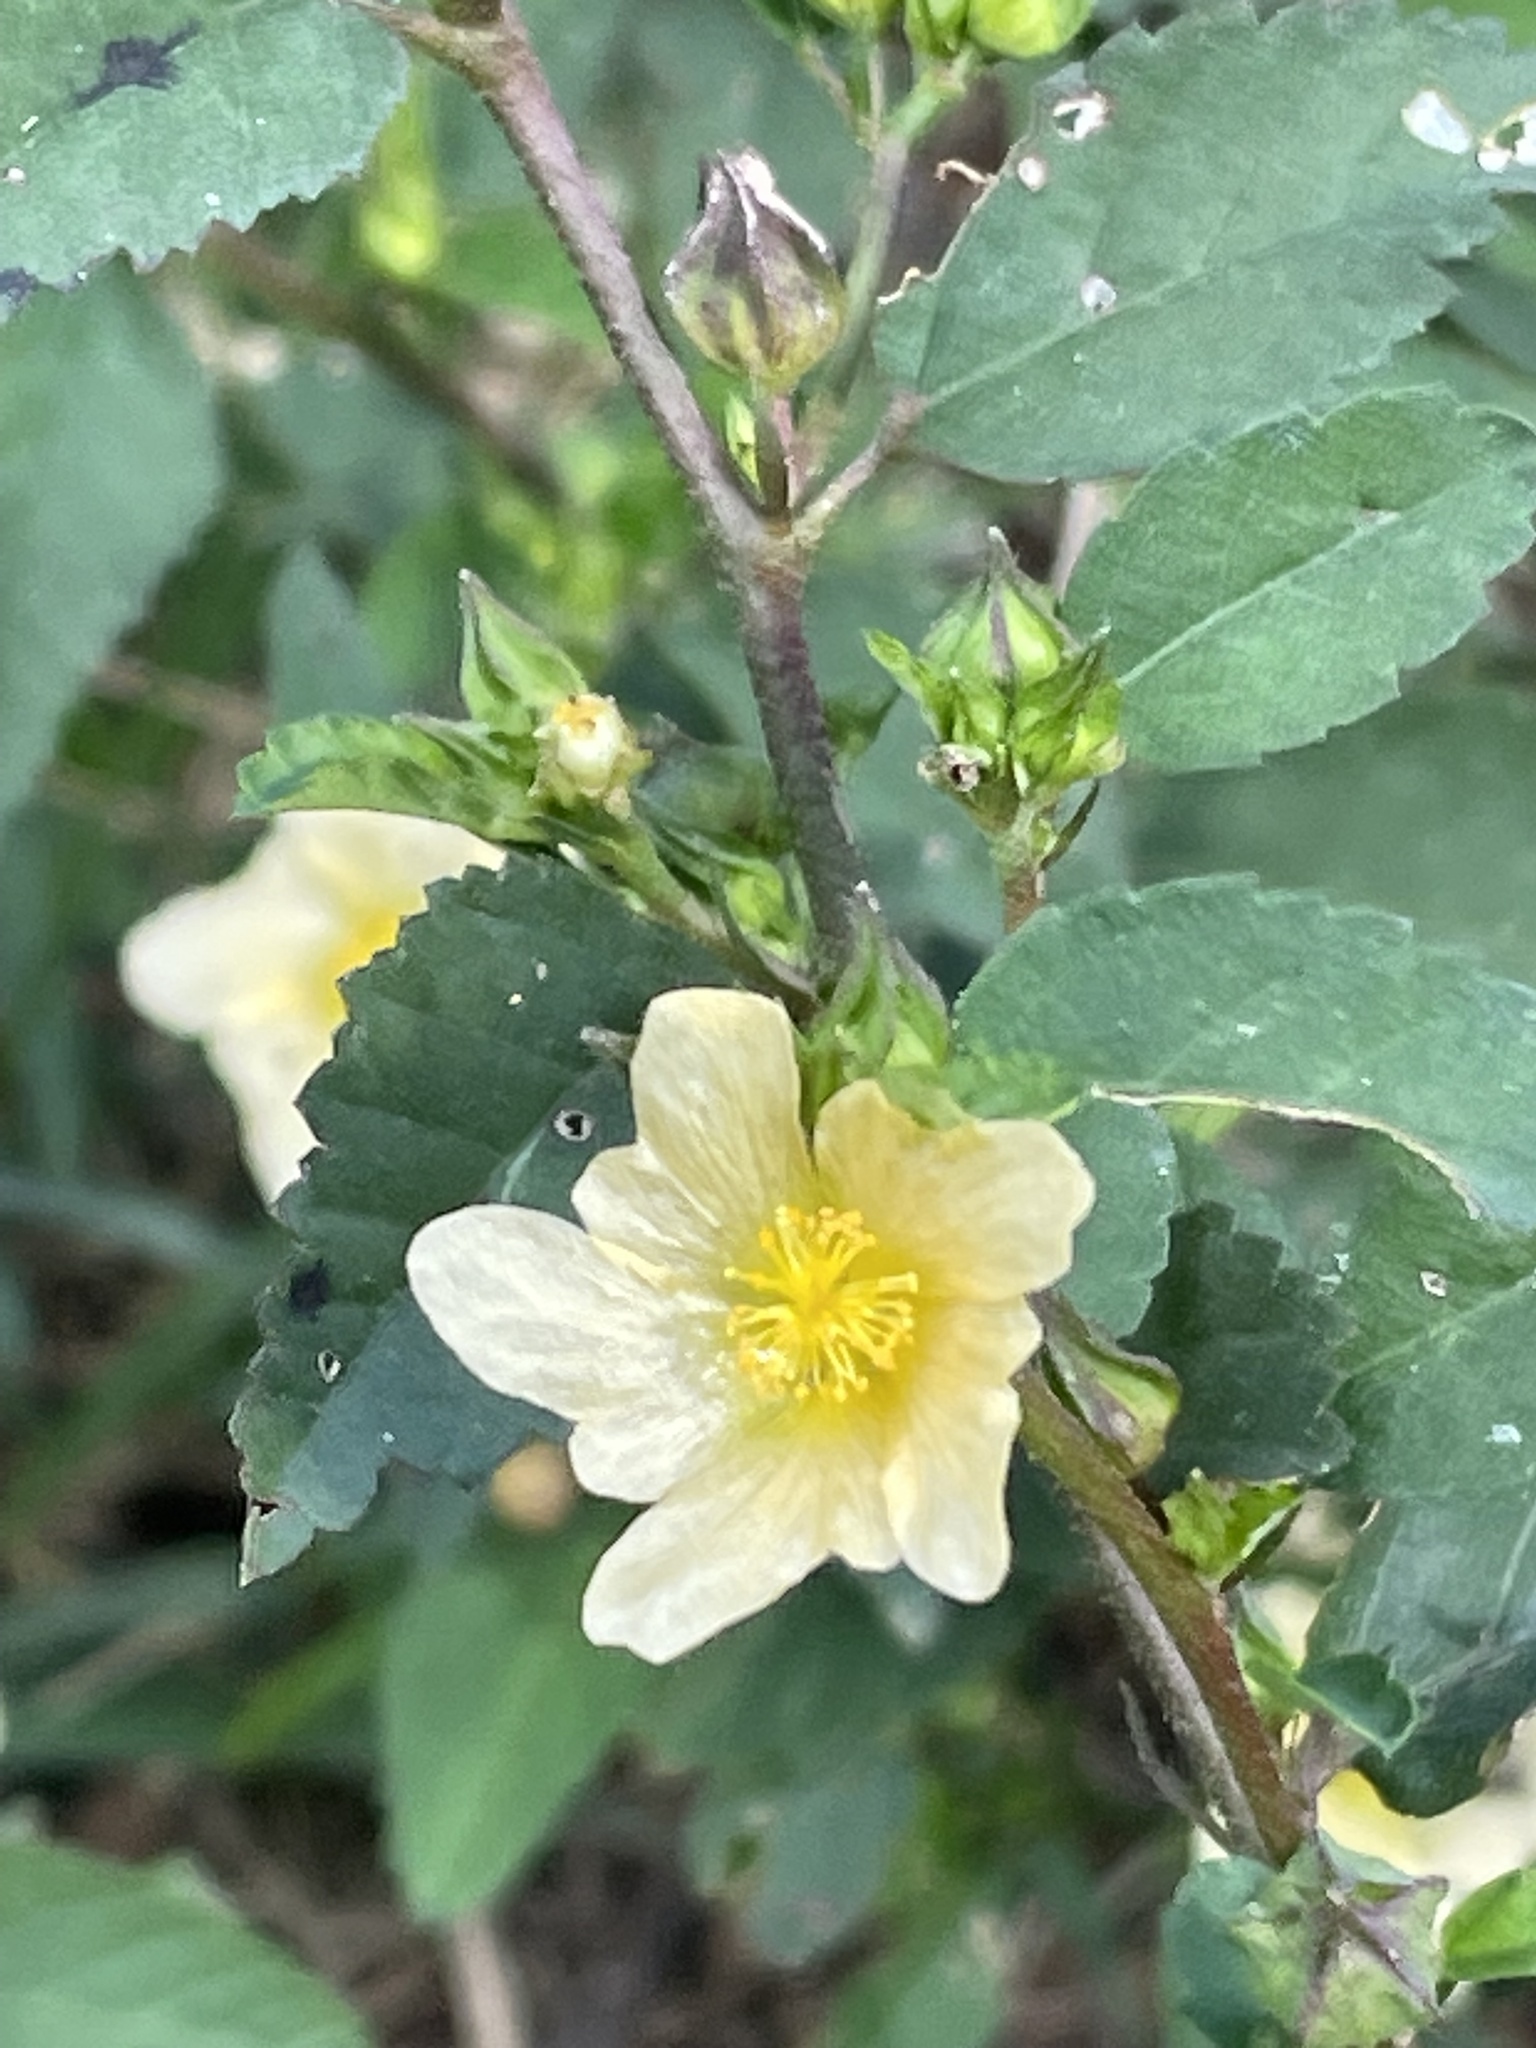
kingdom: Plantae
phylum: Tracheophyta
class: Magnoliopsida
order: Malvales
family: Malvaceae
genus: Sida
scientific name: Sida rhombifolia
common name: Queensland-hemp
